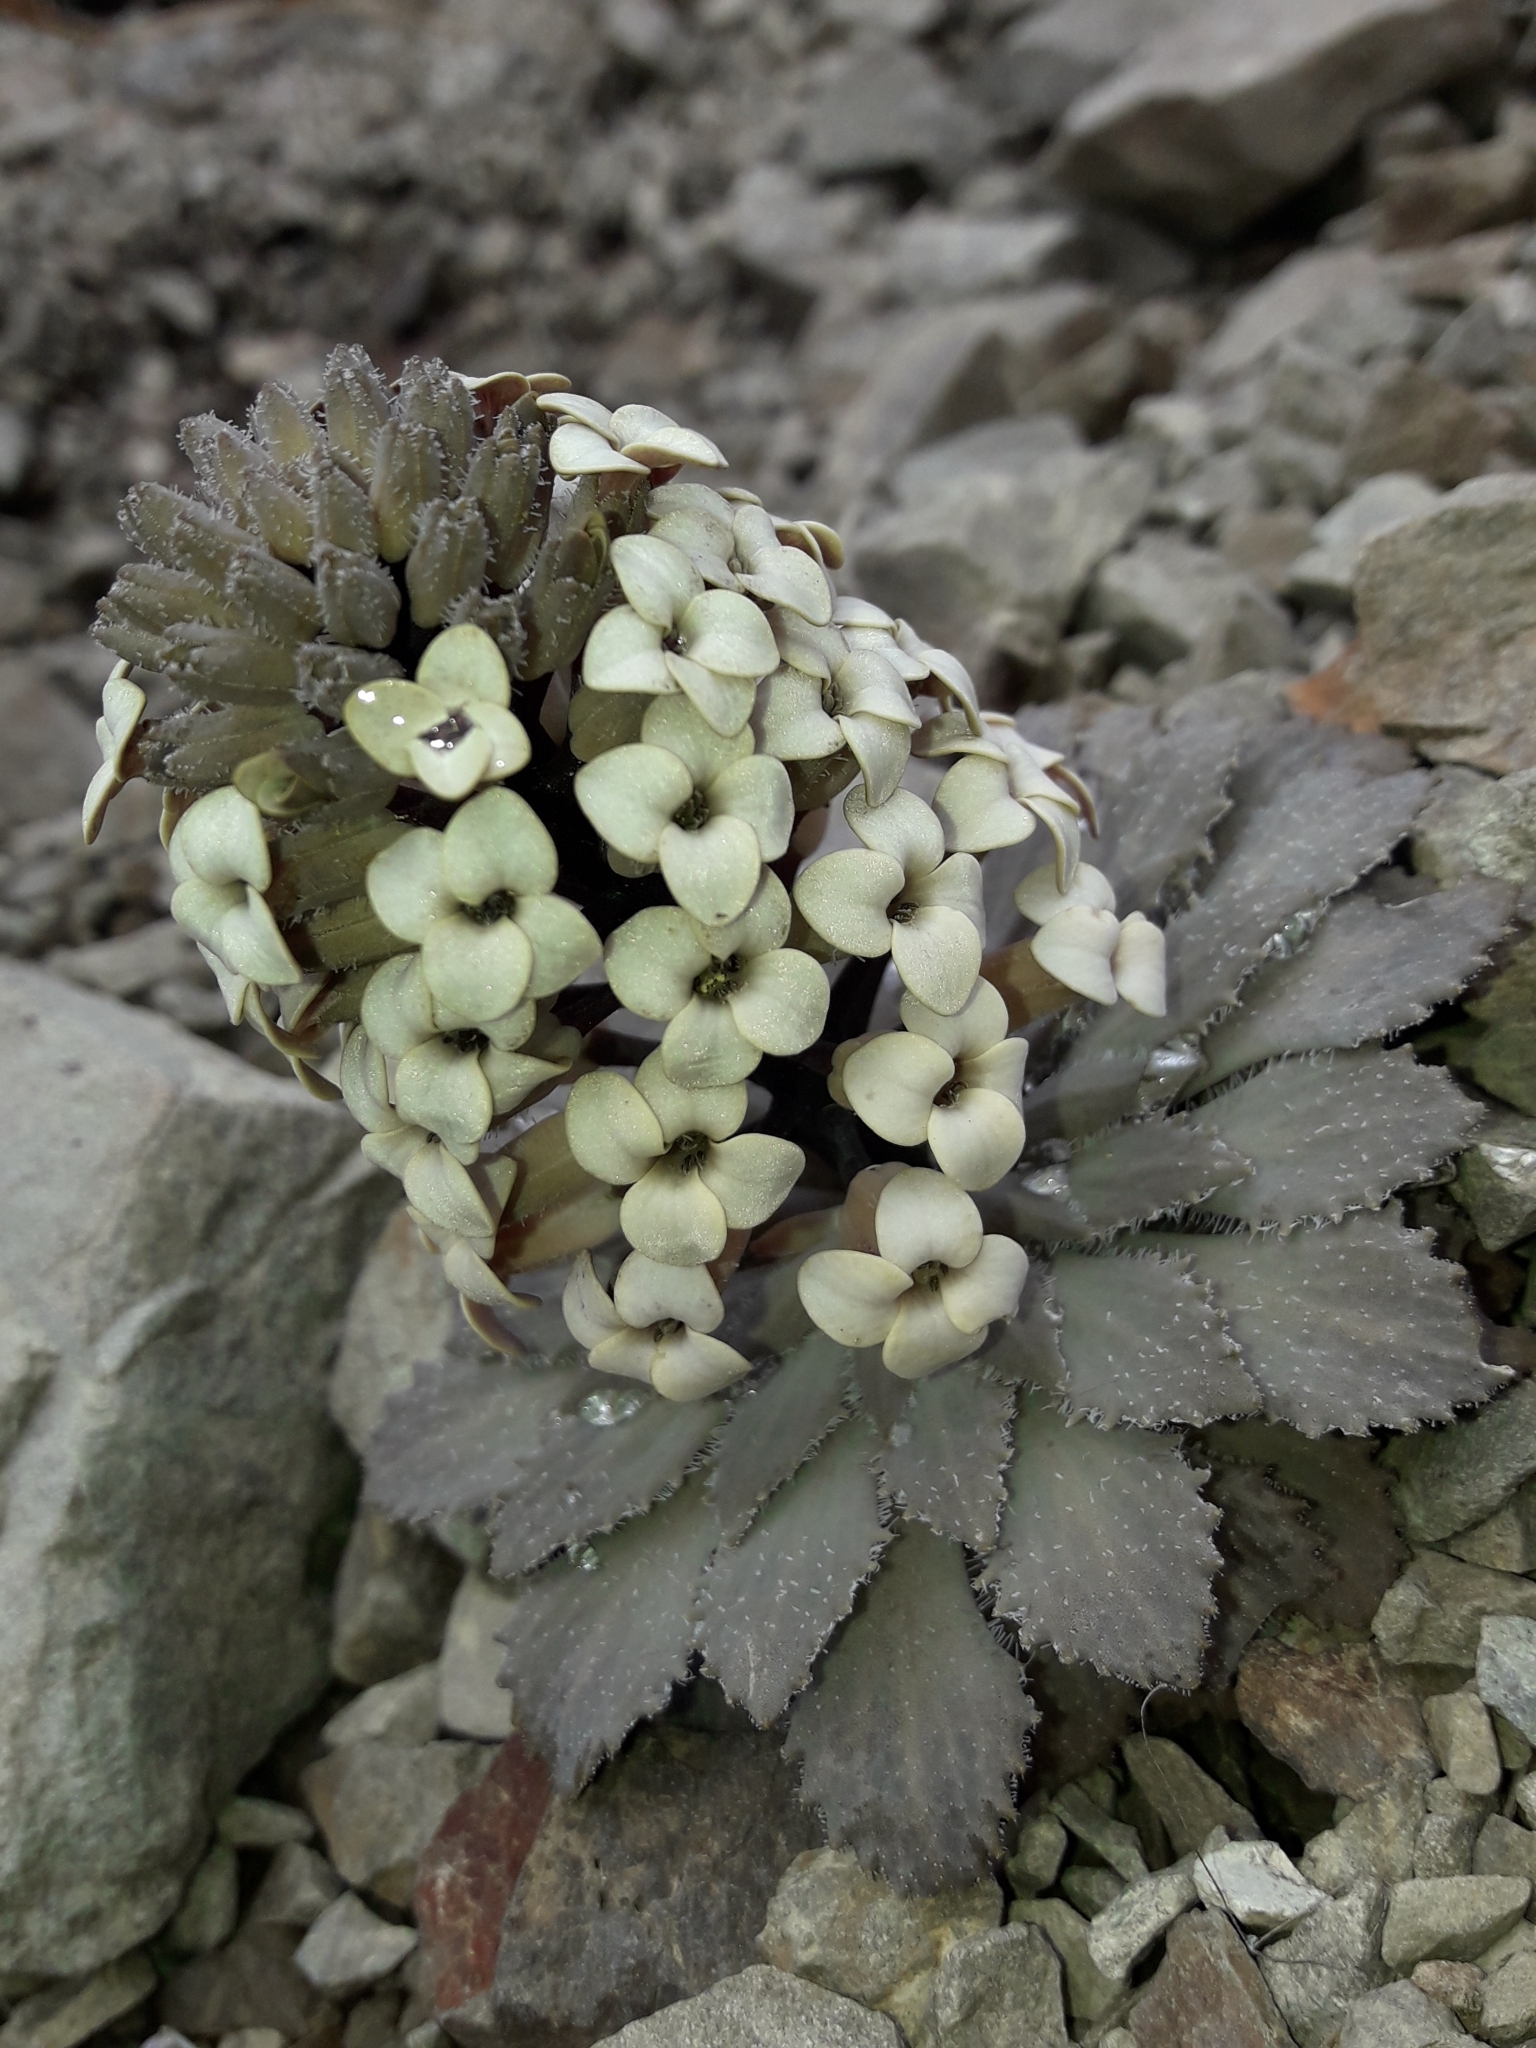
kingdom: Plantae
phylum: Tracheophyta
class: Magnoliopsida
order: Brassicales
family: Brassicaceae
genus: Notothlaspi
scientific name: Notothlaspi rosulatum
